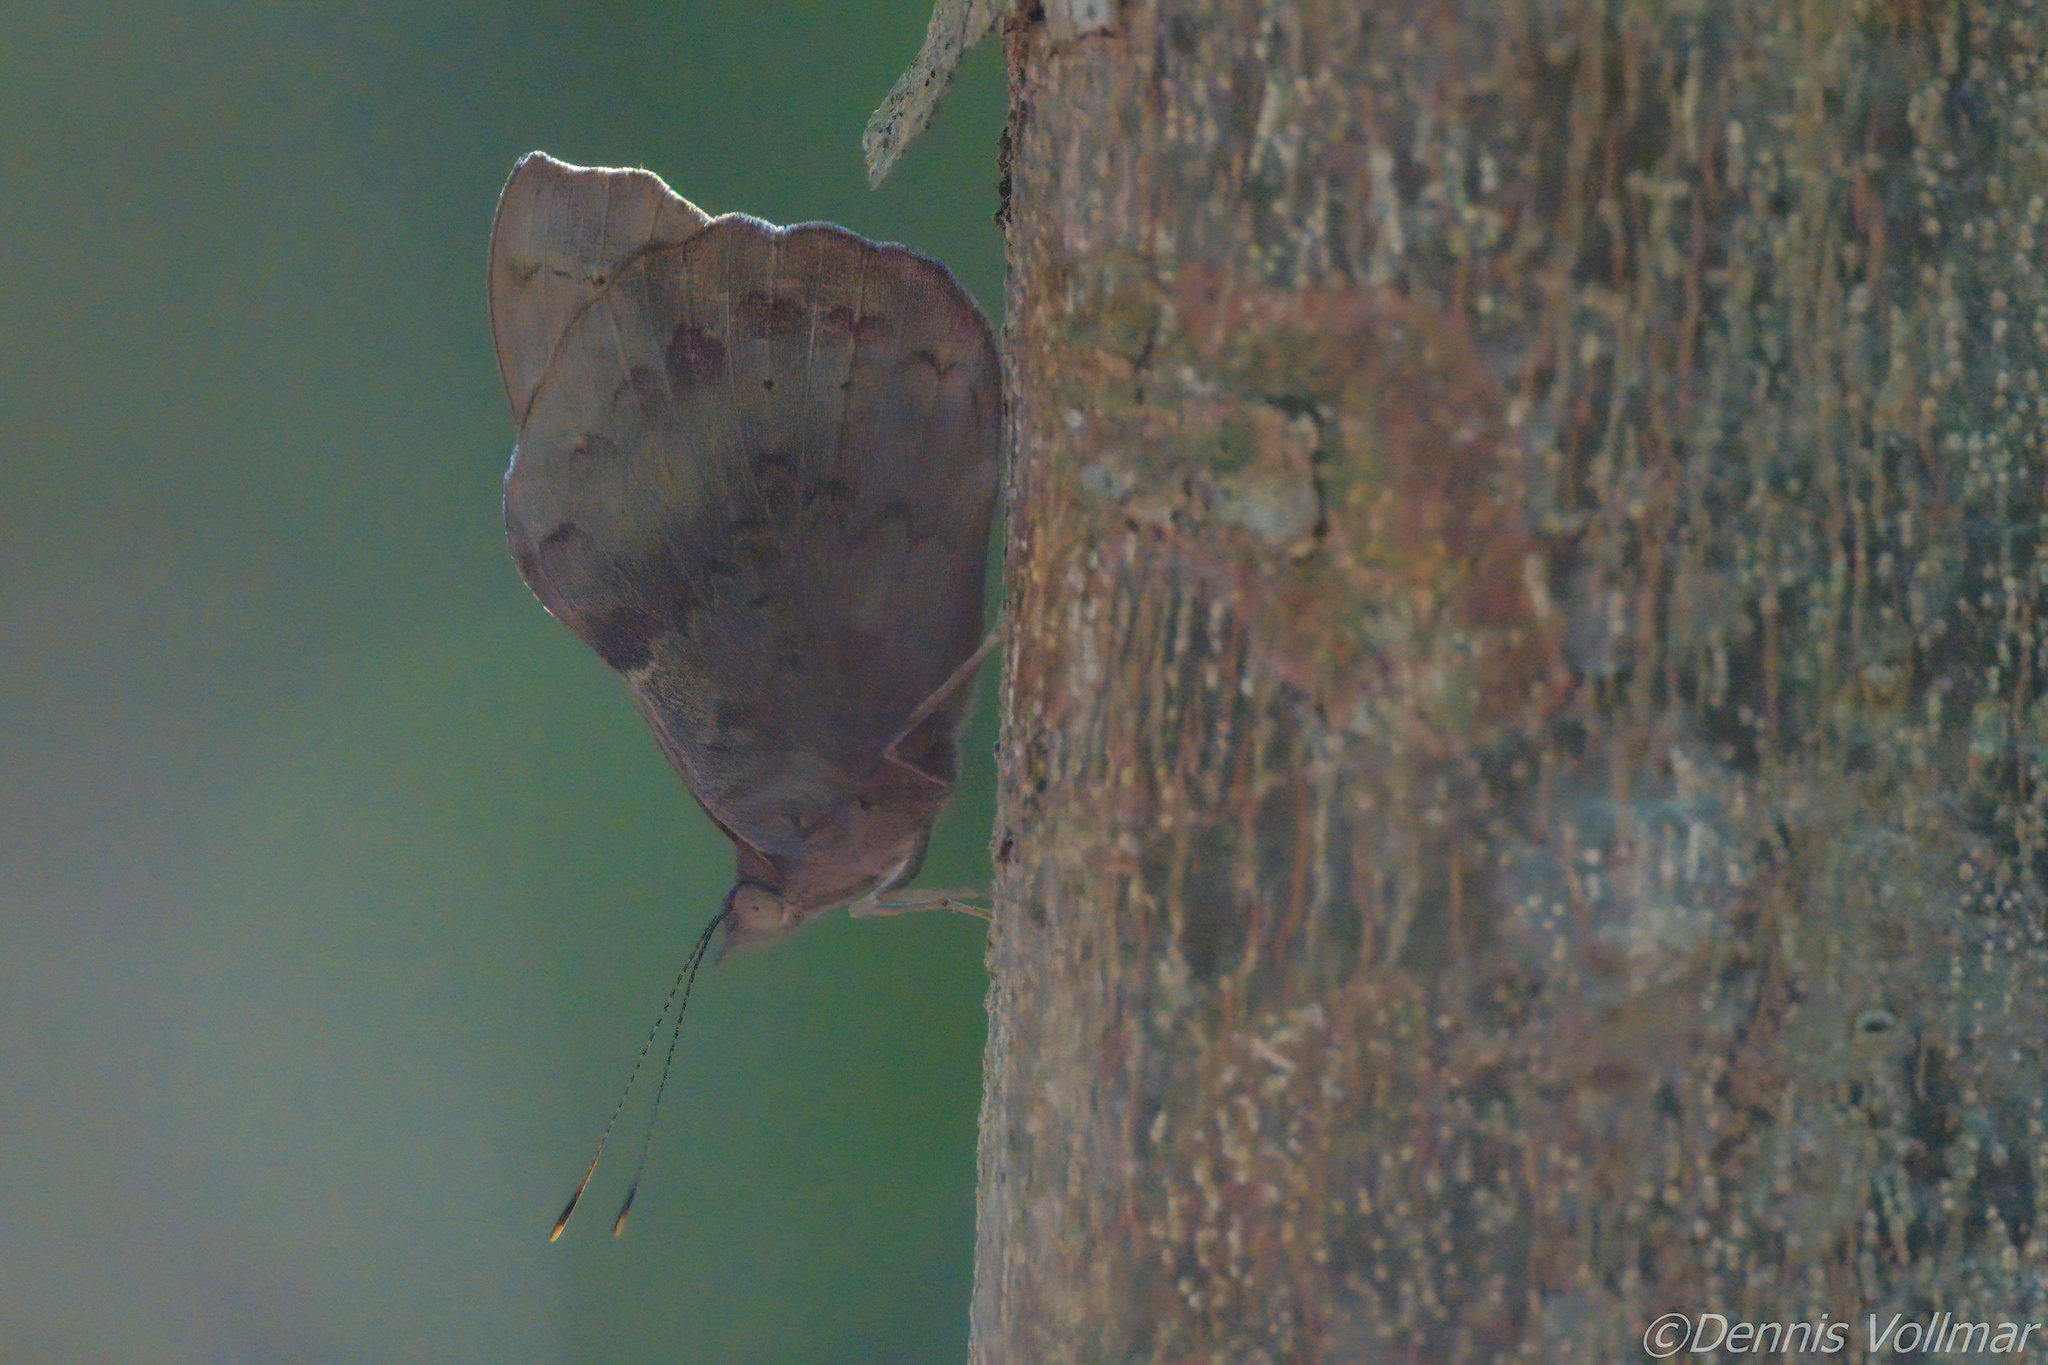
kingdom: Animalia
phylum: Arthropoda
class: Insecta
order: Lepidoptera
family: Nymphalidae
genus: Eunica
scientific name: Eunica tatila
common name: Florida purplewing
